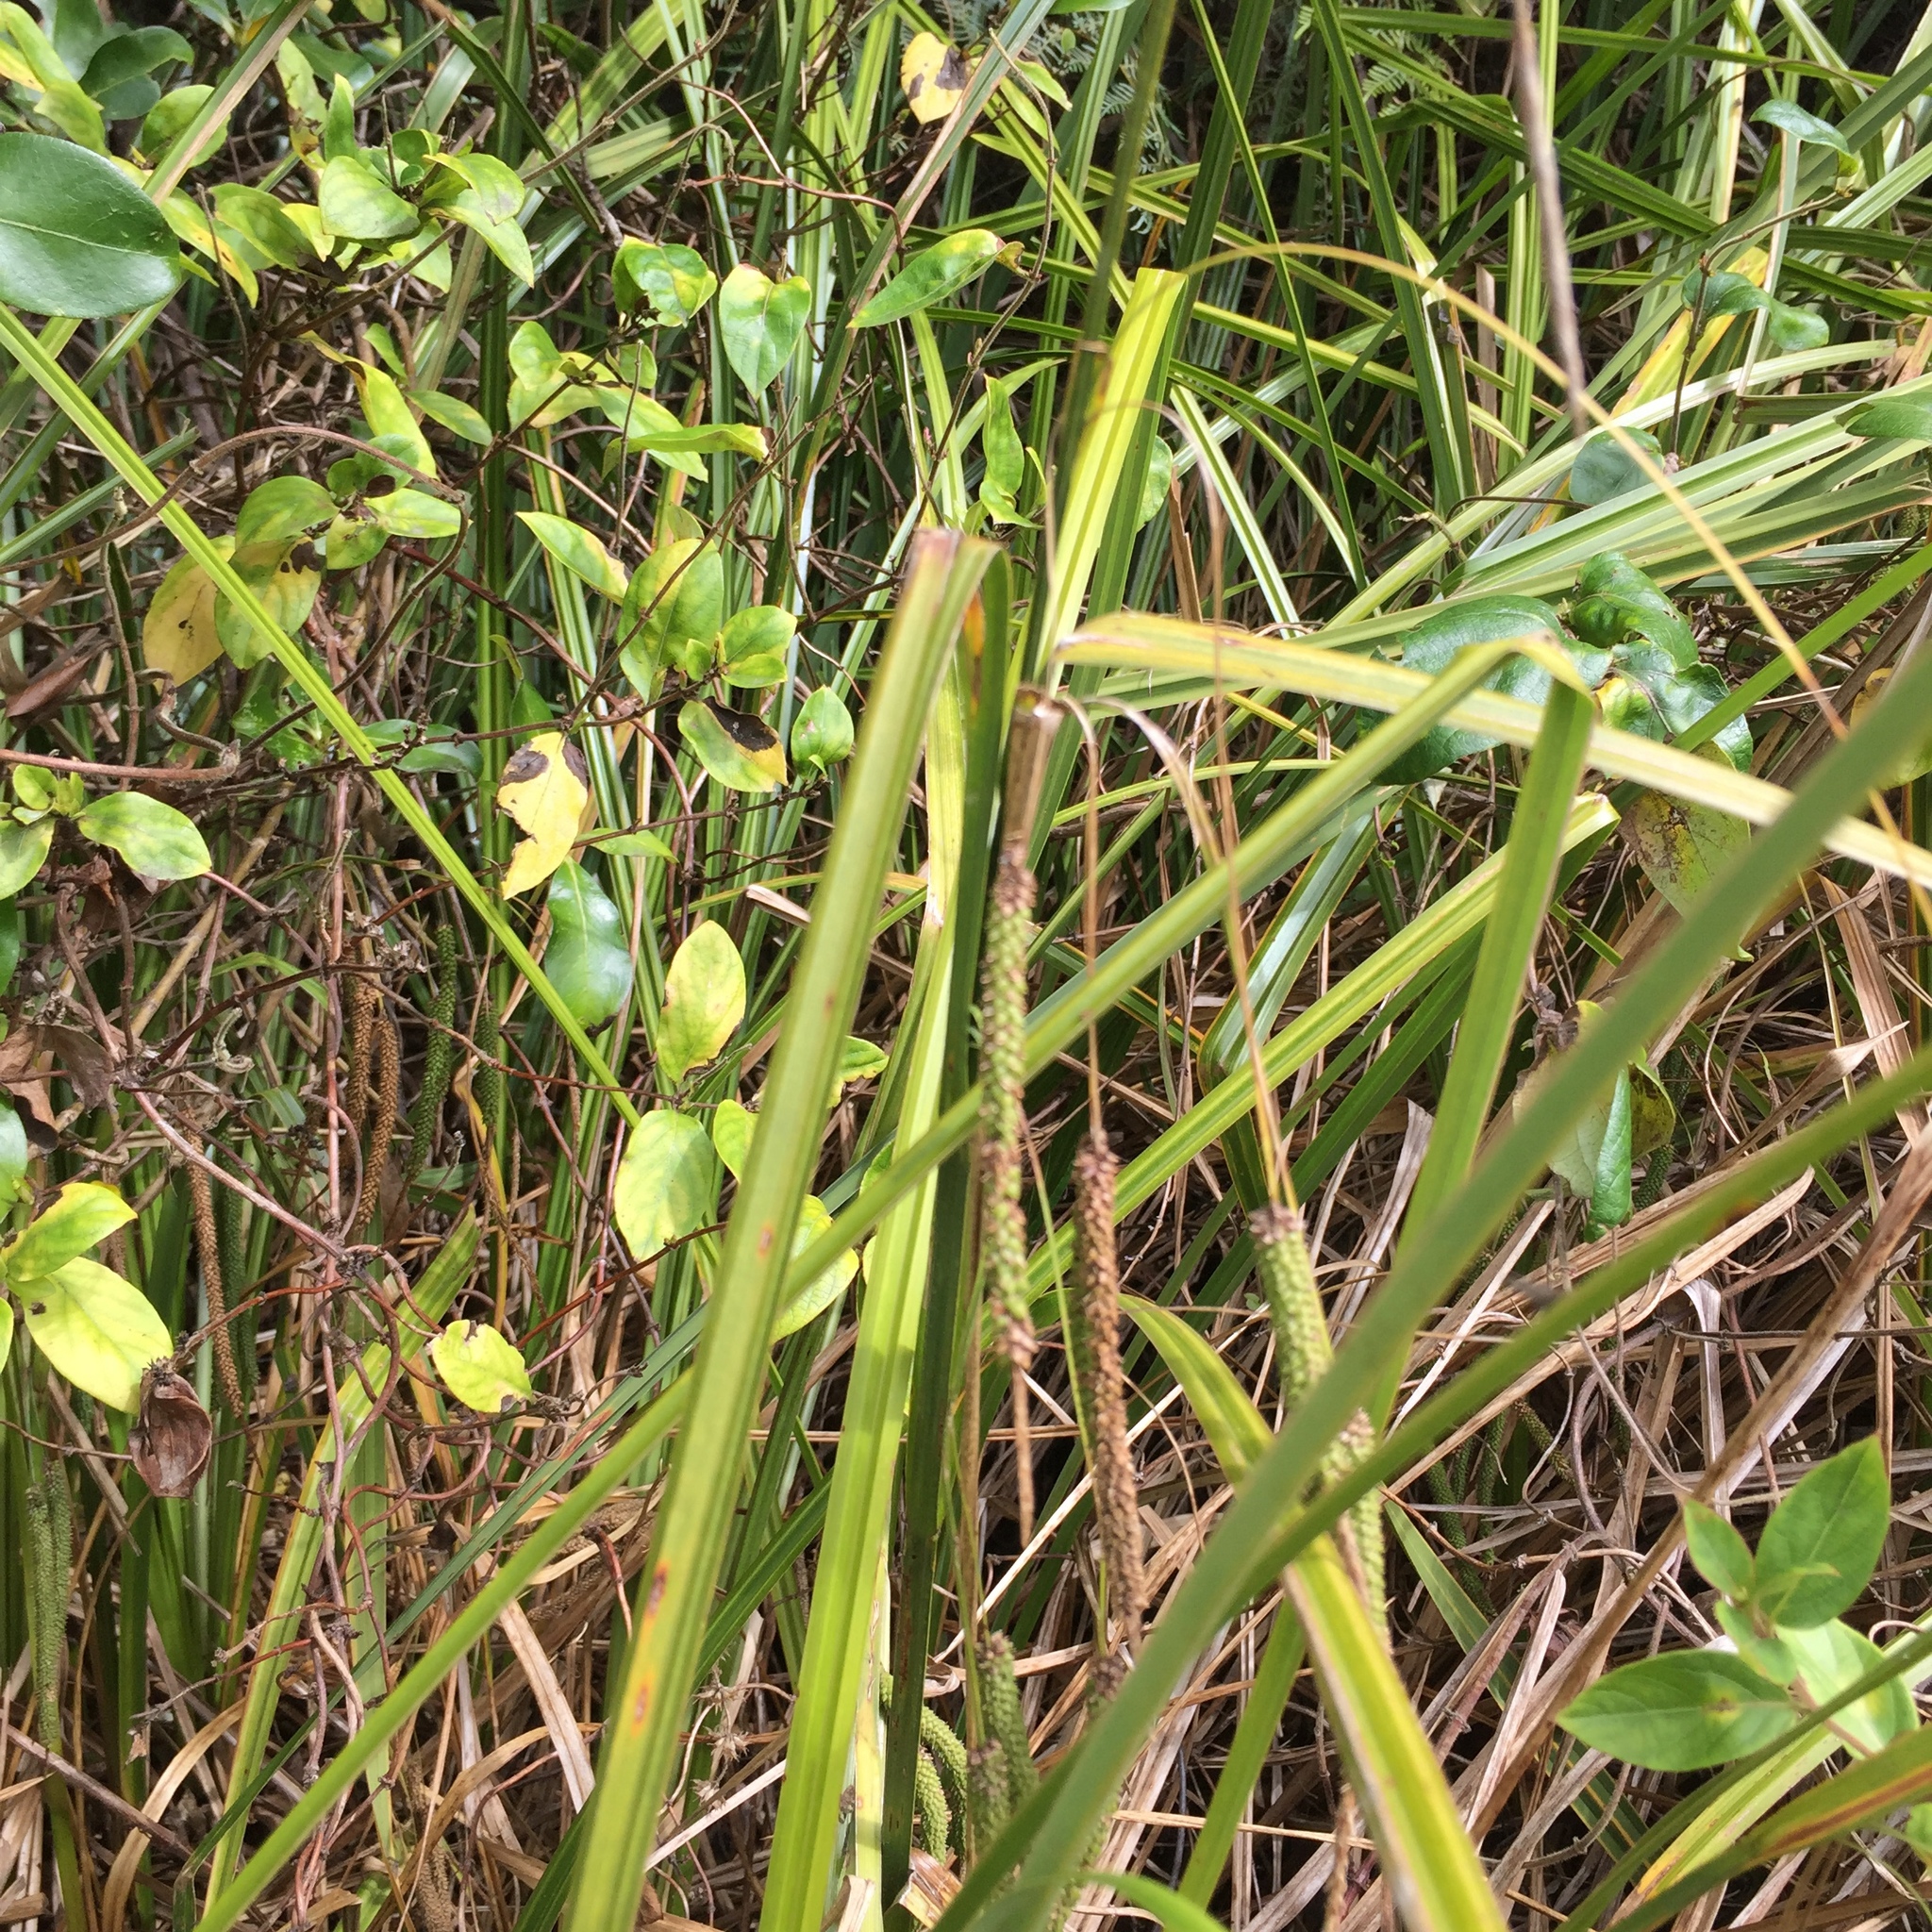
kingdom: Plantae
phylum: Tracheophyta
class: Liliopsida
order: Poales
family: Cyperaceae
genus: Carex
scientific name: Carex geminata
